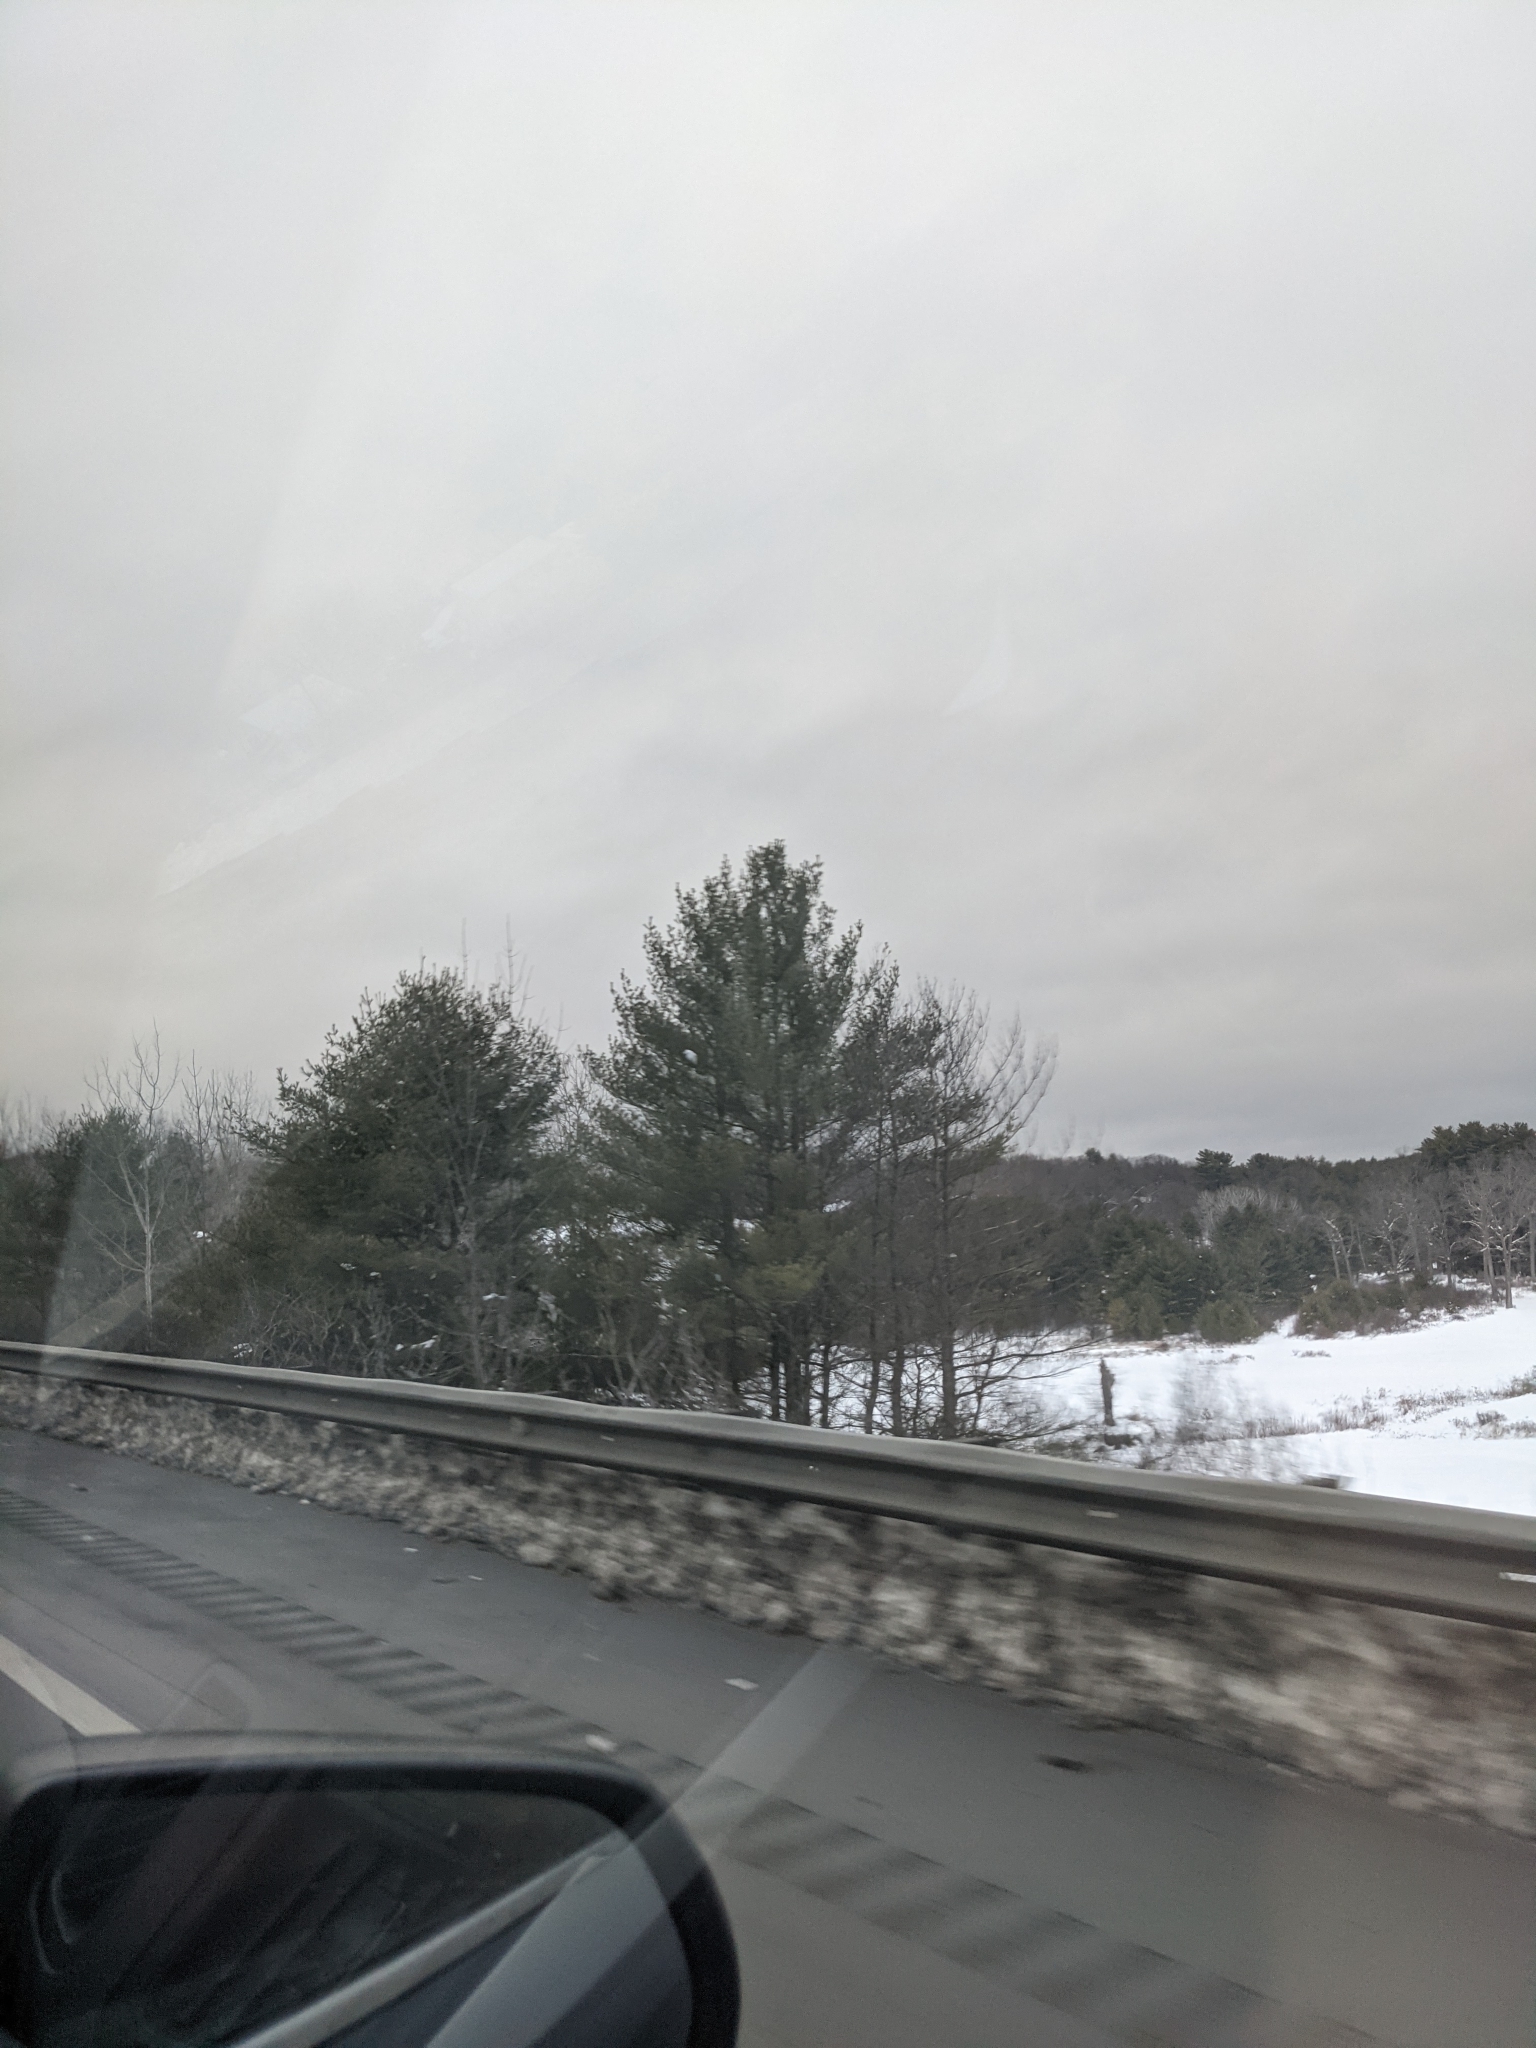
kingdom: Plantae
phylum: Tracheophyta
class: Pinopsida
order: Pinales
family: Pinaceae
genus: Pinus
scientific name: Pinus strobus
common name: Weymouth pine
